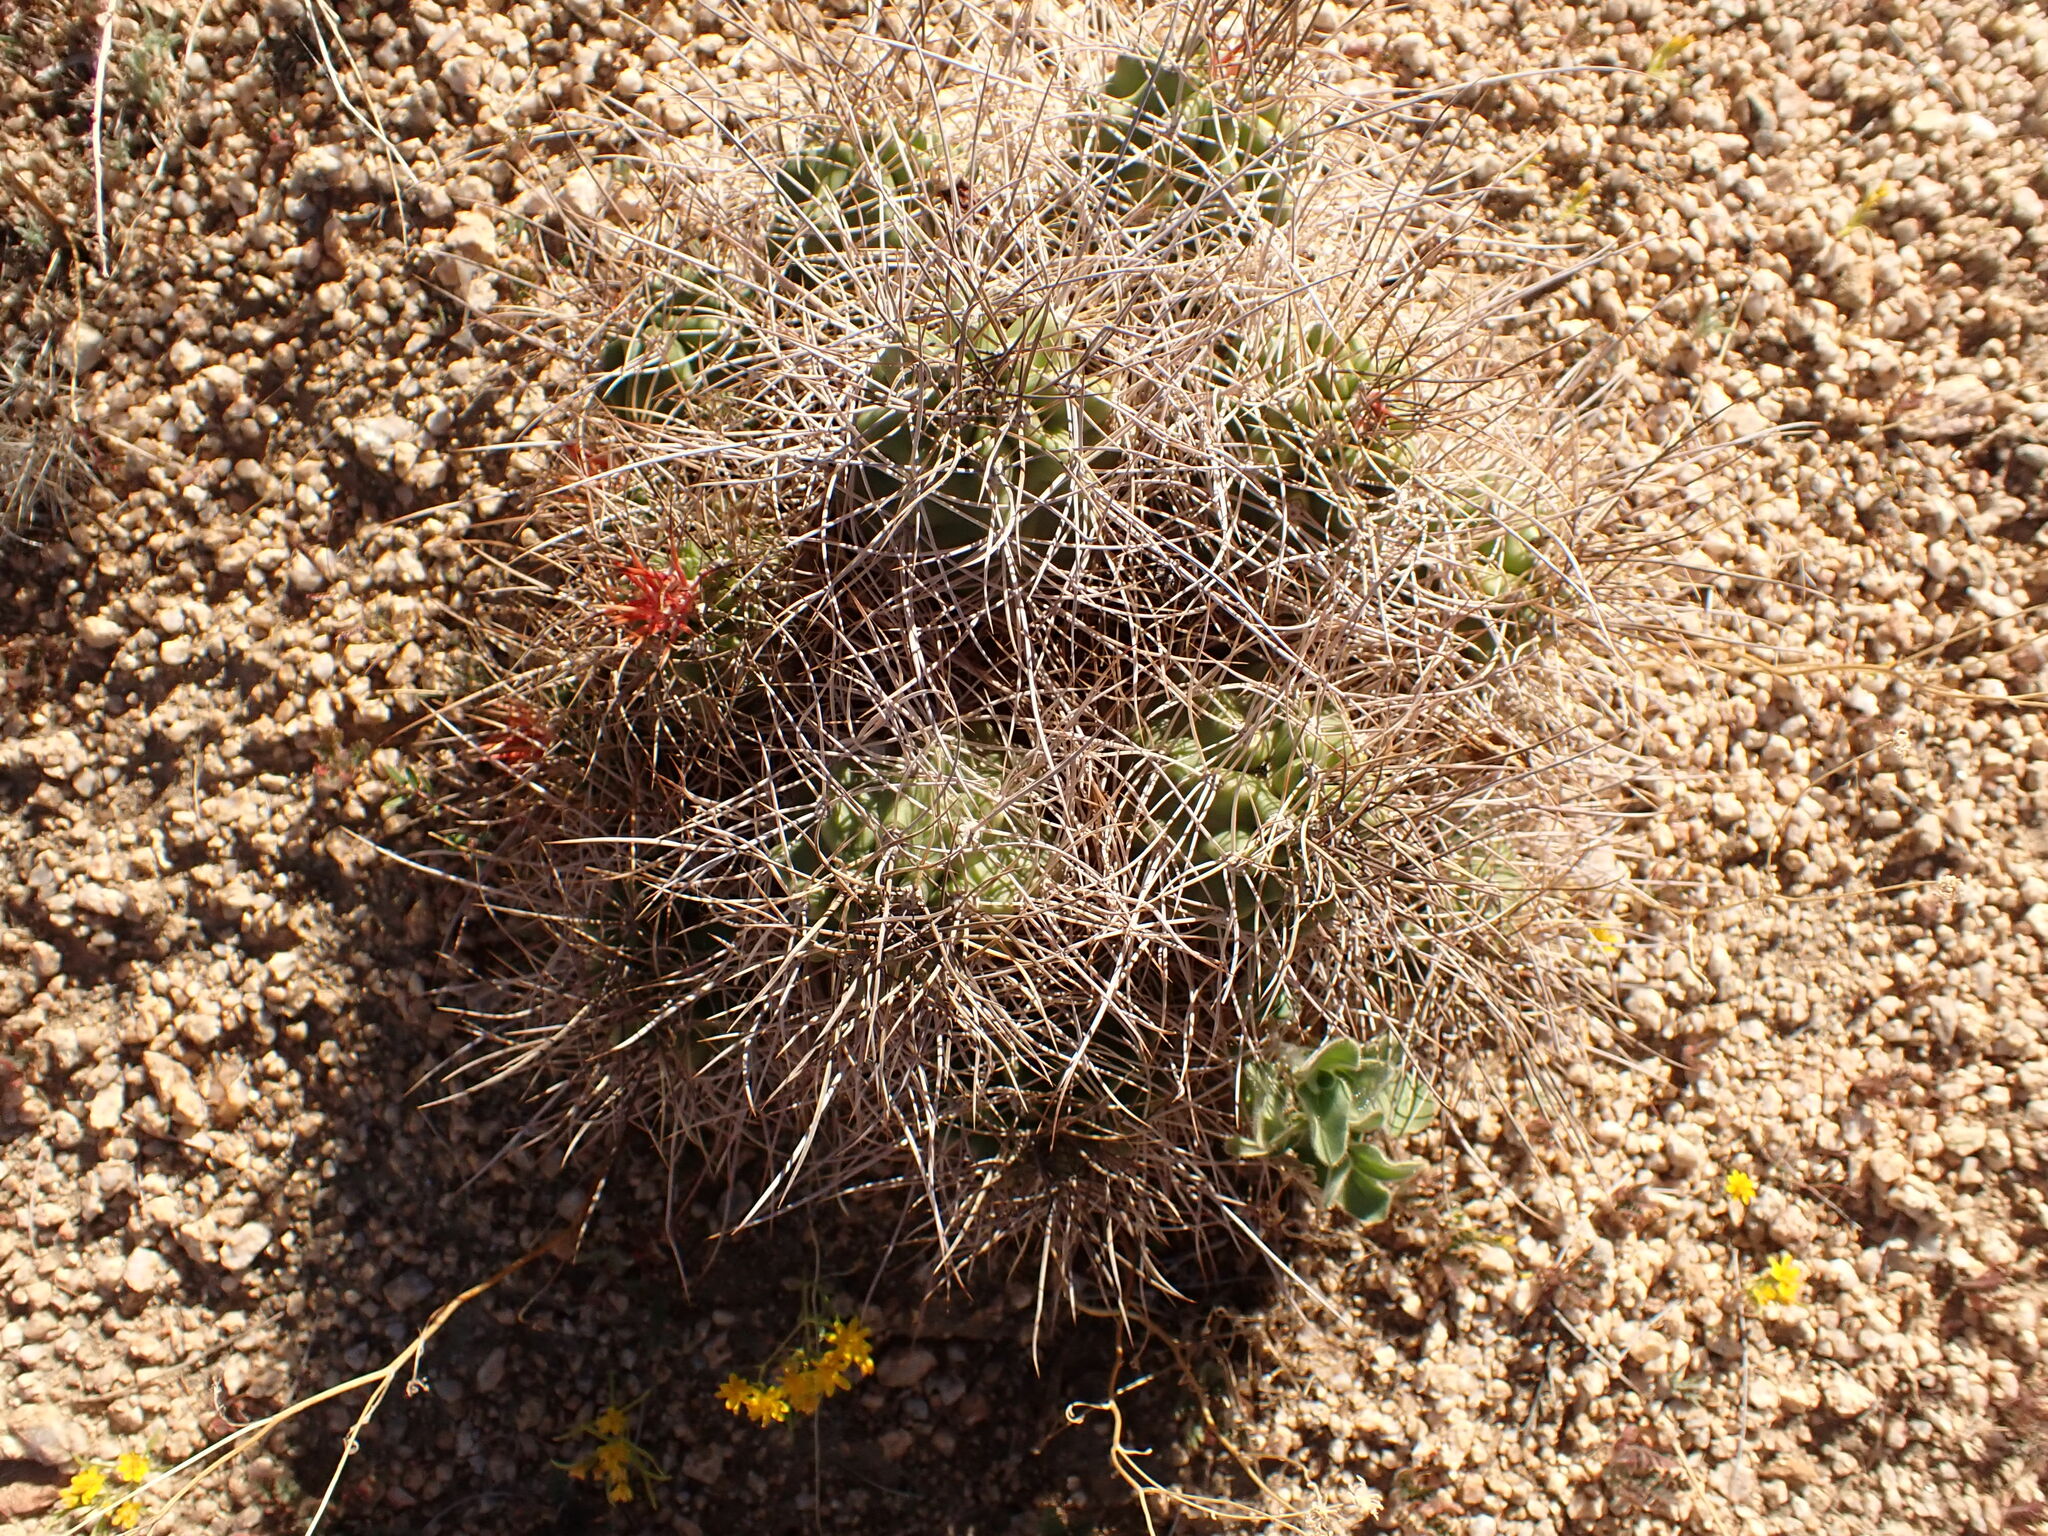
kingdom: Plantae
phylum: Tracheophyta
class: Magnoliopsida
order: Caryophyllales
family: Cactaceae
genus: Echinocereus
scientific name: Echinocereus triglochidiatus
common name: Claretcup hedgehog
